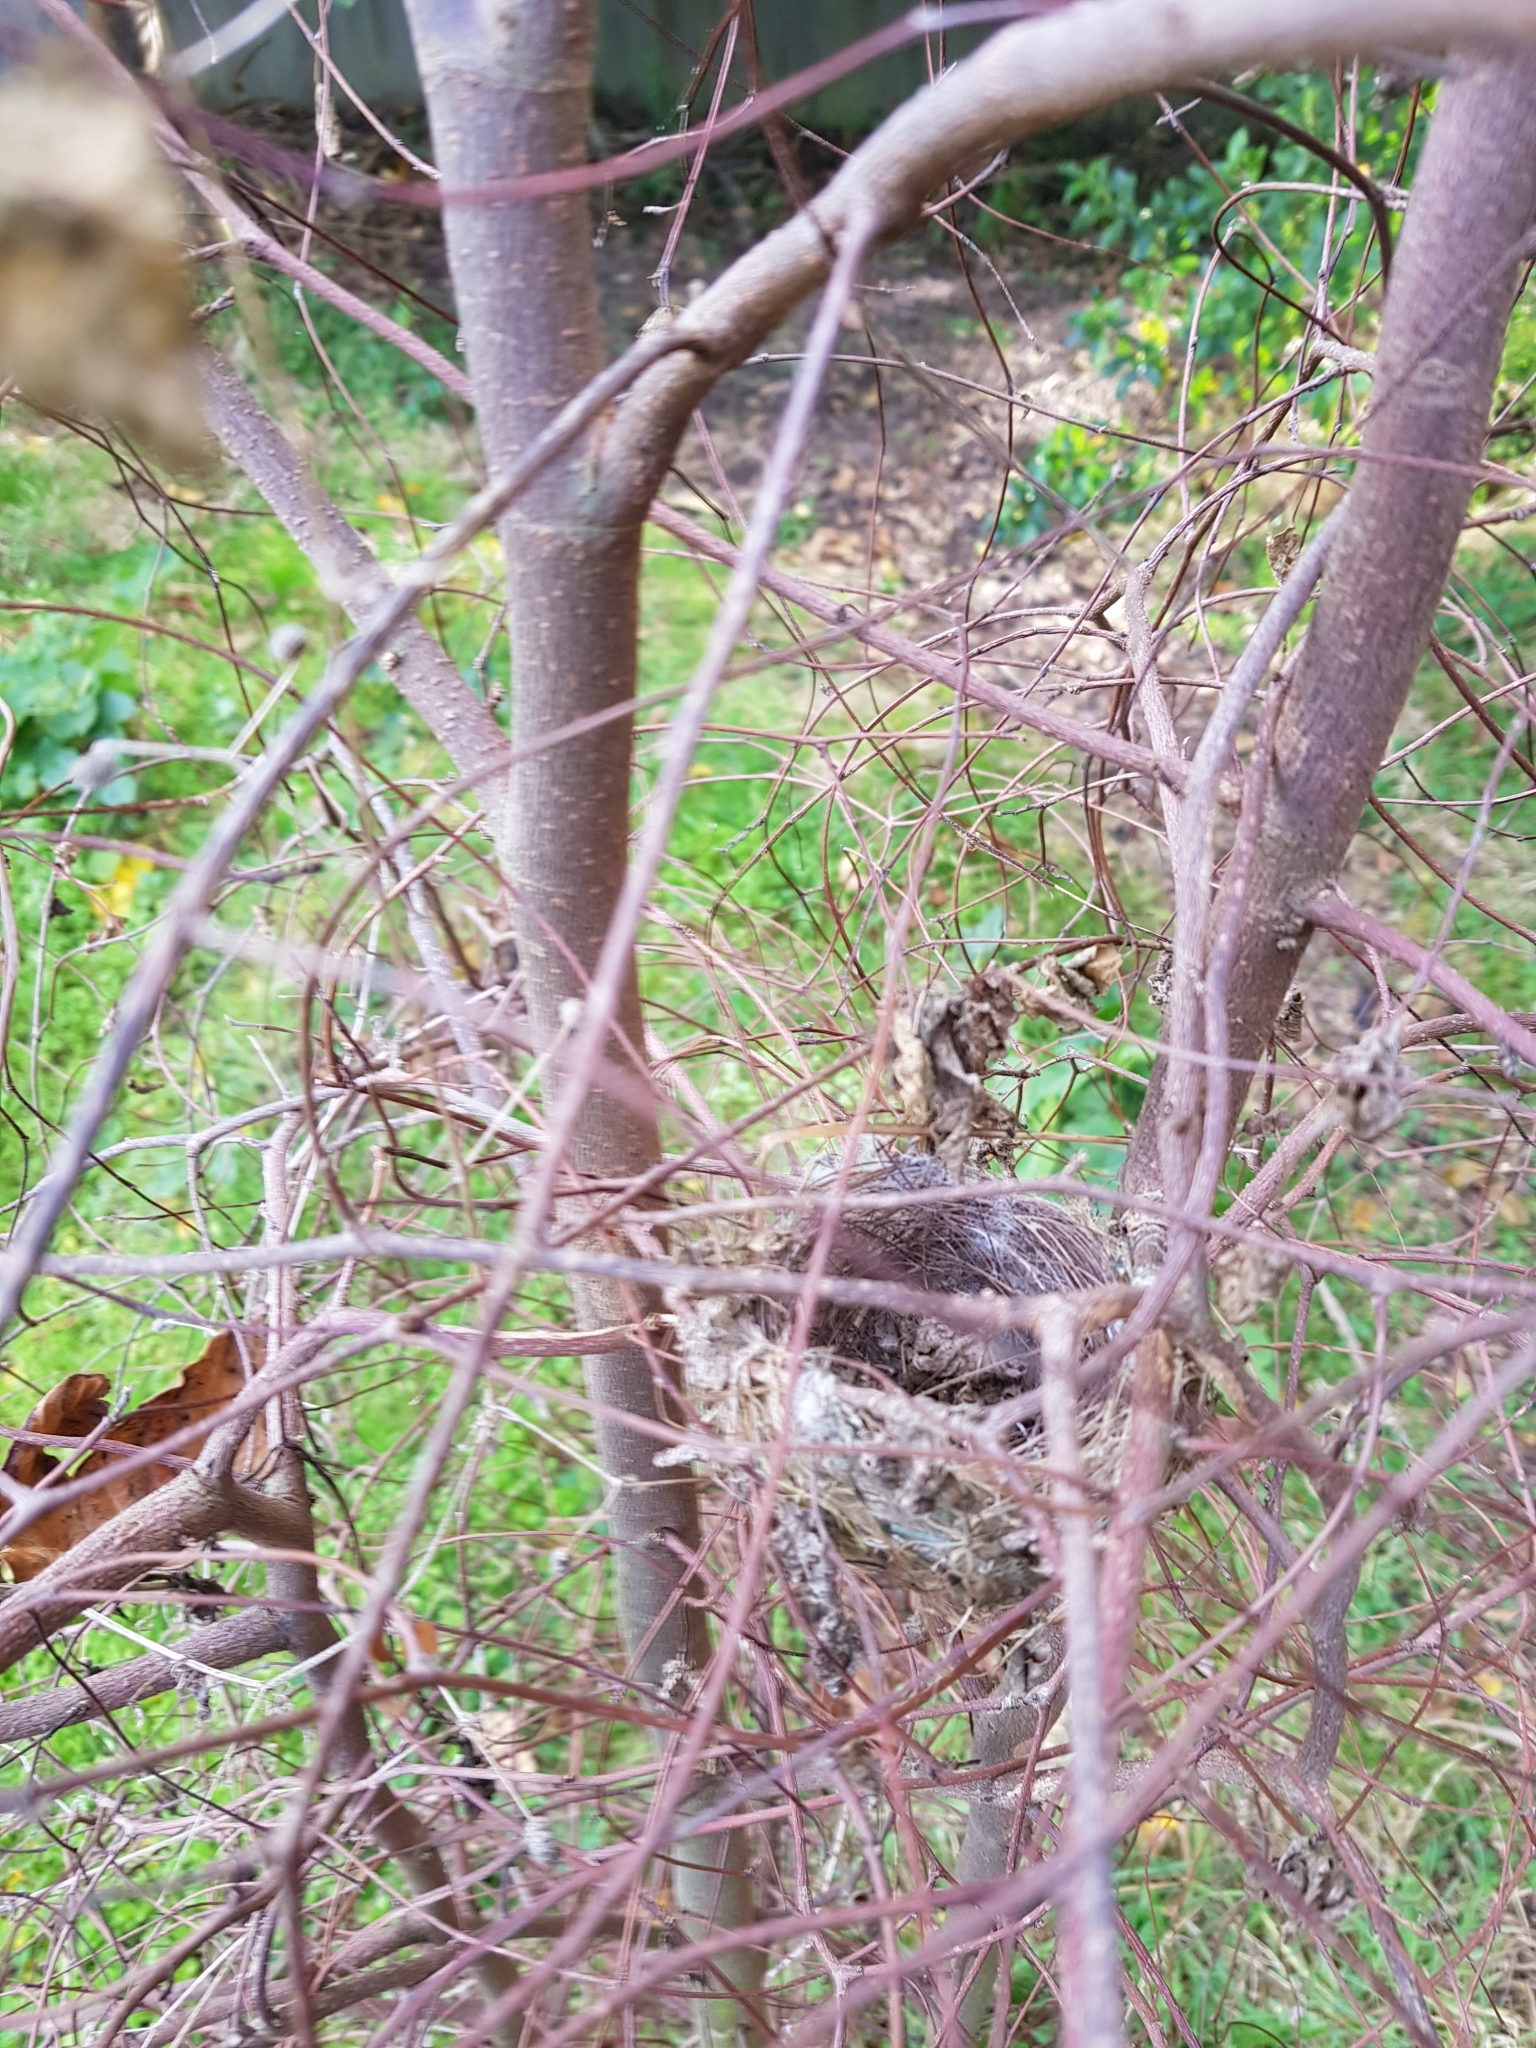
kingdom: Animalia
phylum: Chordata
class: Aves
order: Passeriformes
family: Zosteropidae
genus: Zosterops
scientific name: Zosterops lateralis
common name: Silvereye
